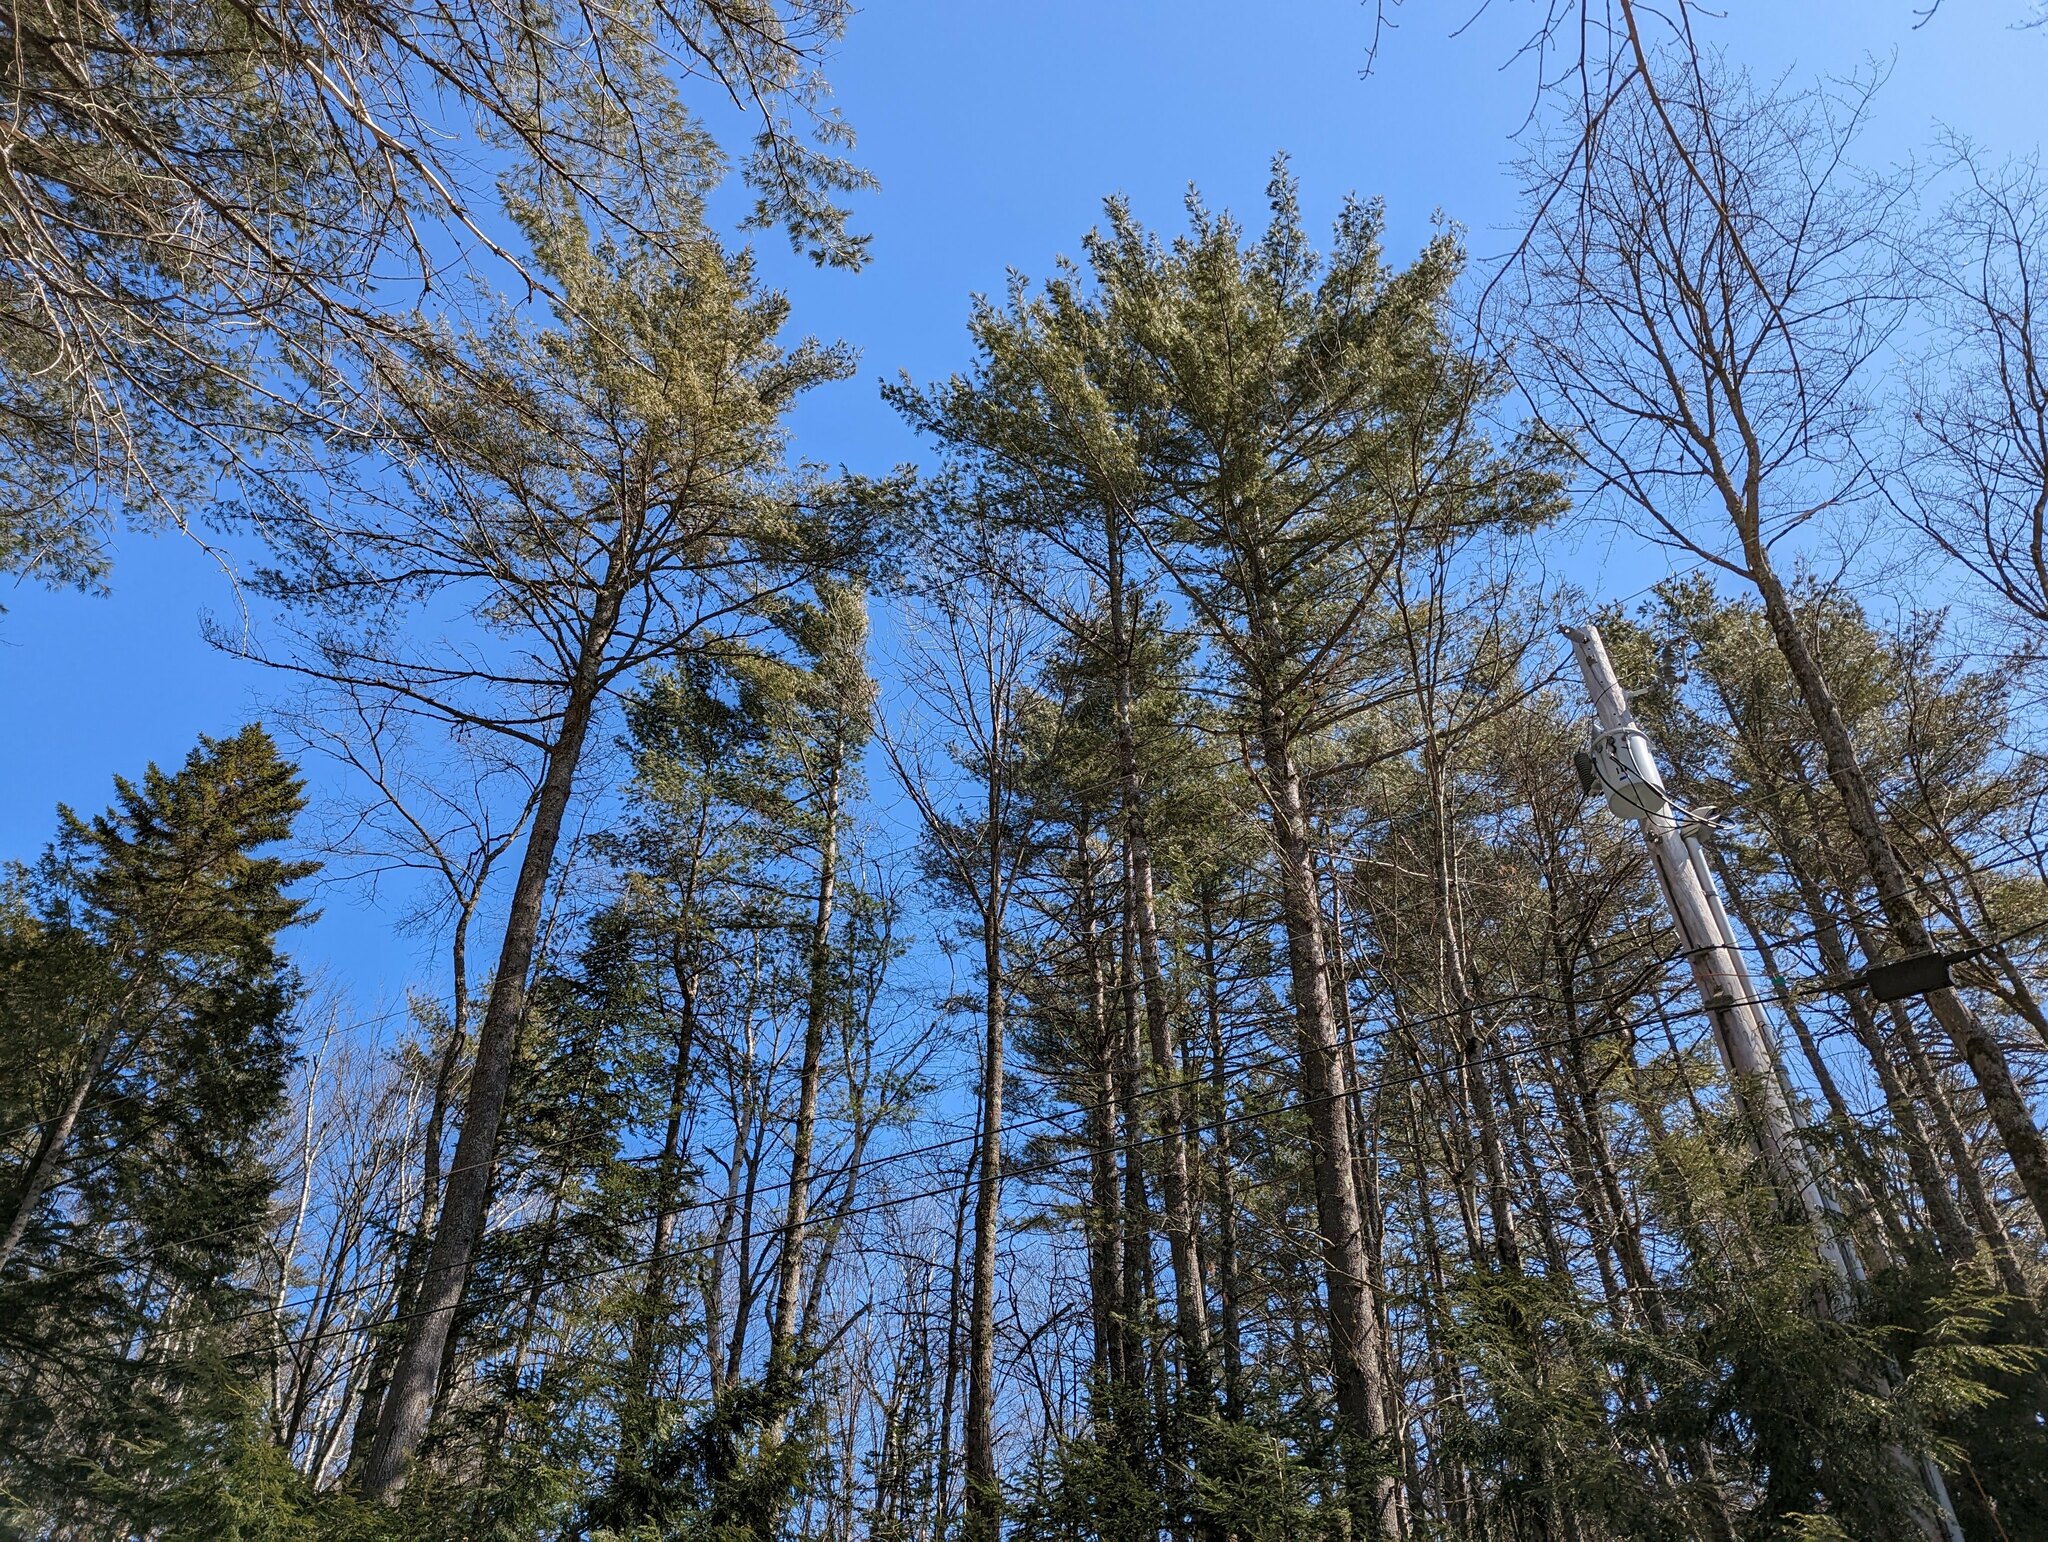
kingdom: Plantae
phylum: Tracheophyta
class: Pinopsida
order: Pinales
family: Pinaceae
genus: Pinus
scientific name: Pinus strobus
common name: Weymouth pine
